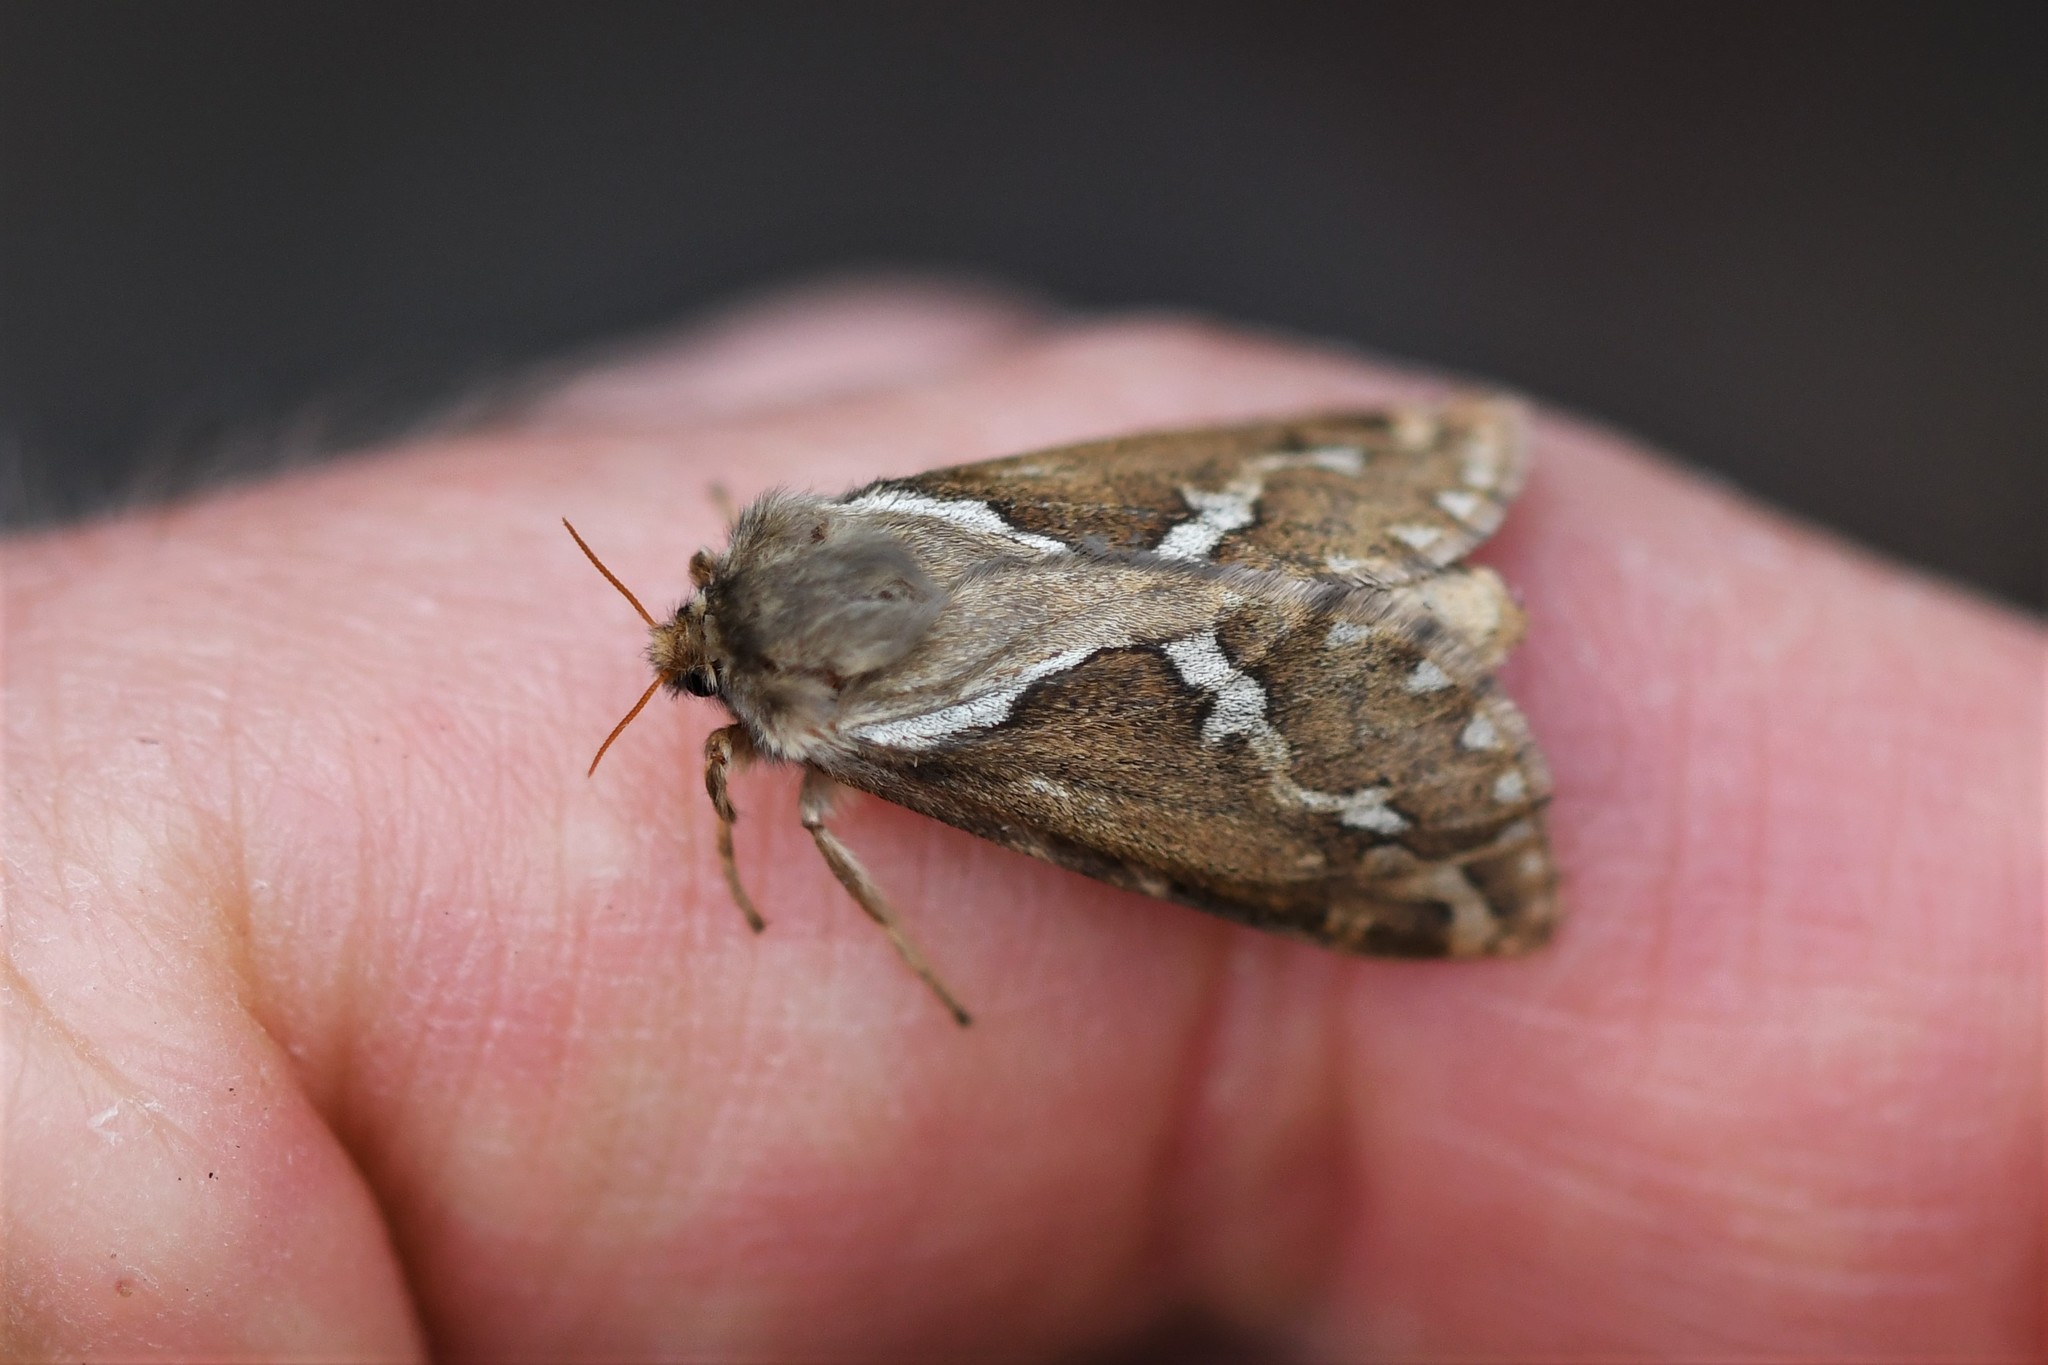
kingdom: Animalia
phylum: Arthropoda
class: Insecta
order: Lepidoptera
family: Hepialidae
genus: Korscheltellus
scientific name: Korscheltellus lupulina
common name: Common swift
